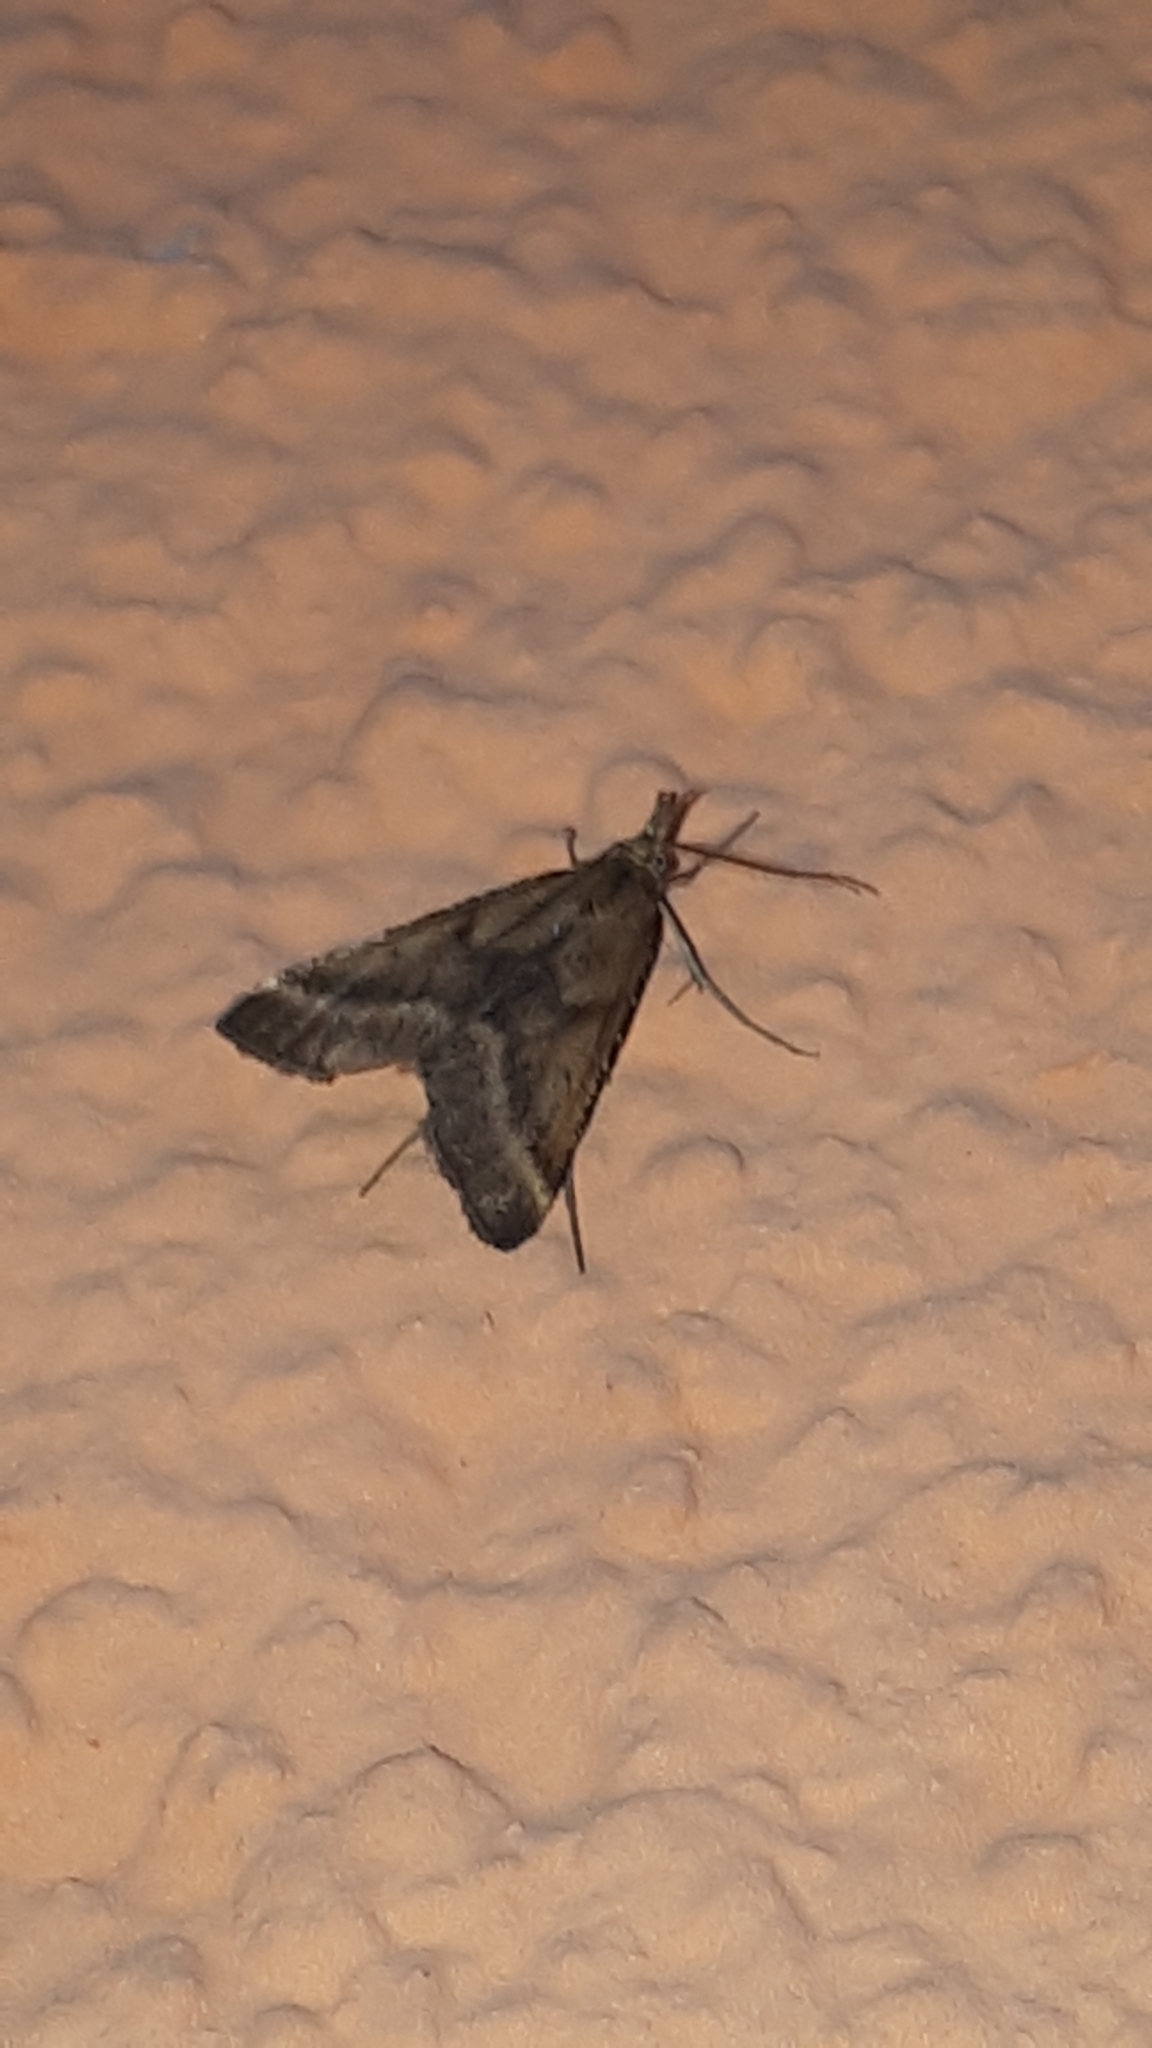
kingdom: Animalia
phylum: Arthropoda
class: Insecta
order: Lepidoptera
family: Pyralidae
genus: Synaphe
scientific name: Synaphe punctalis
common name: Long-legged tabby
